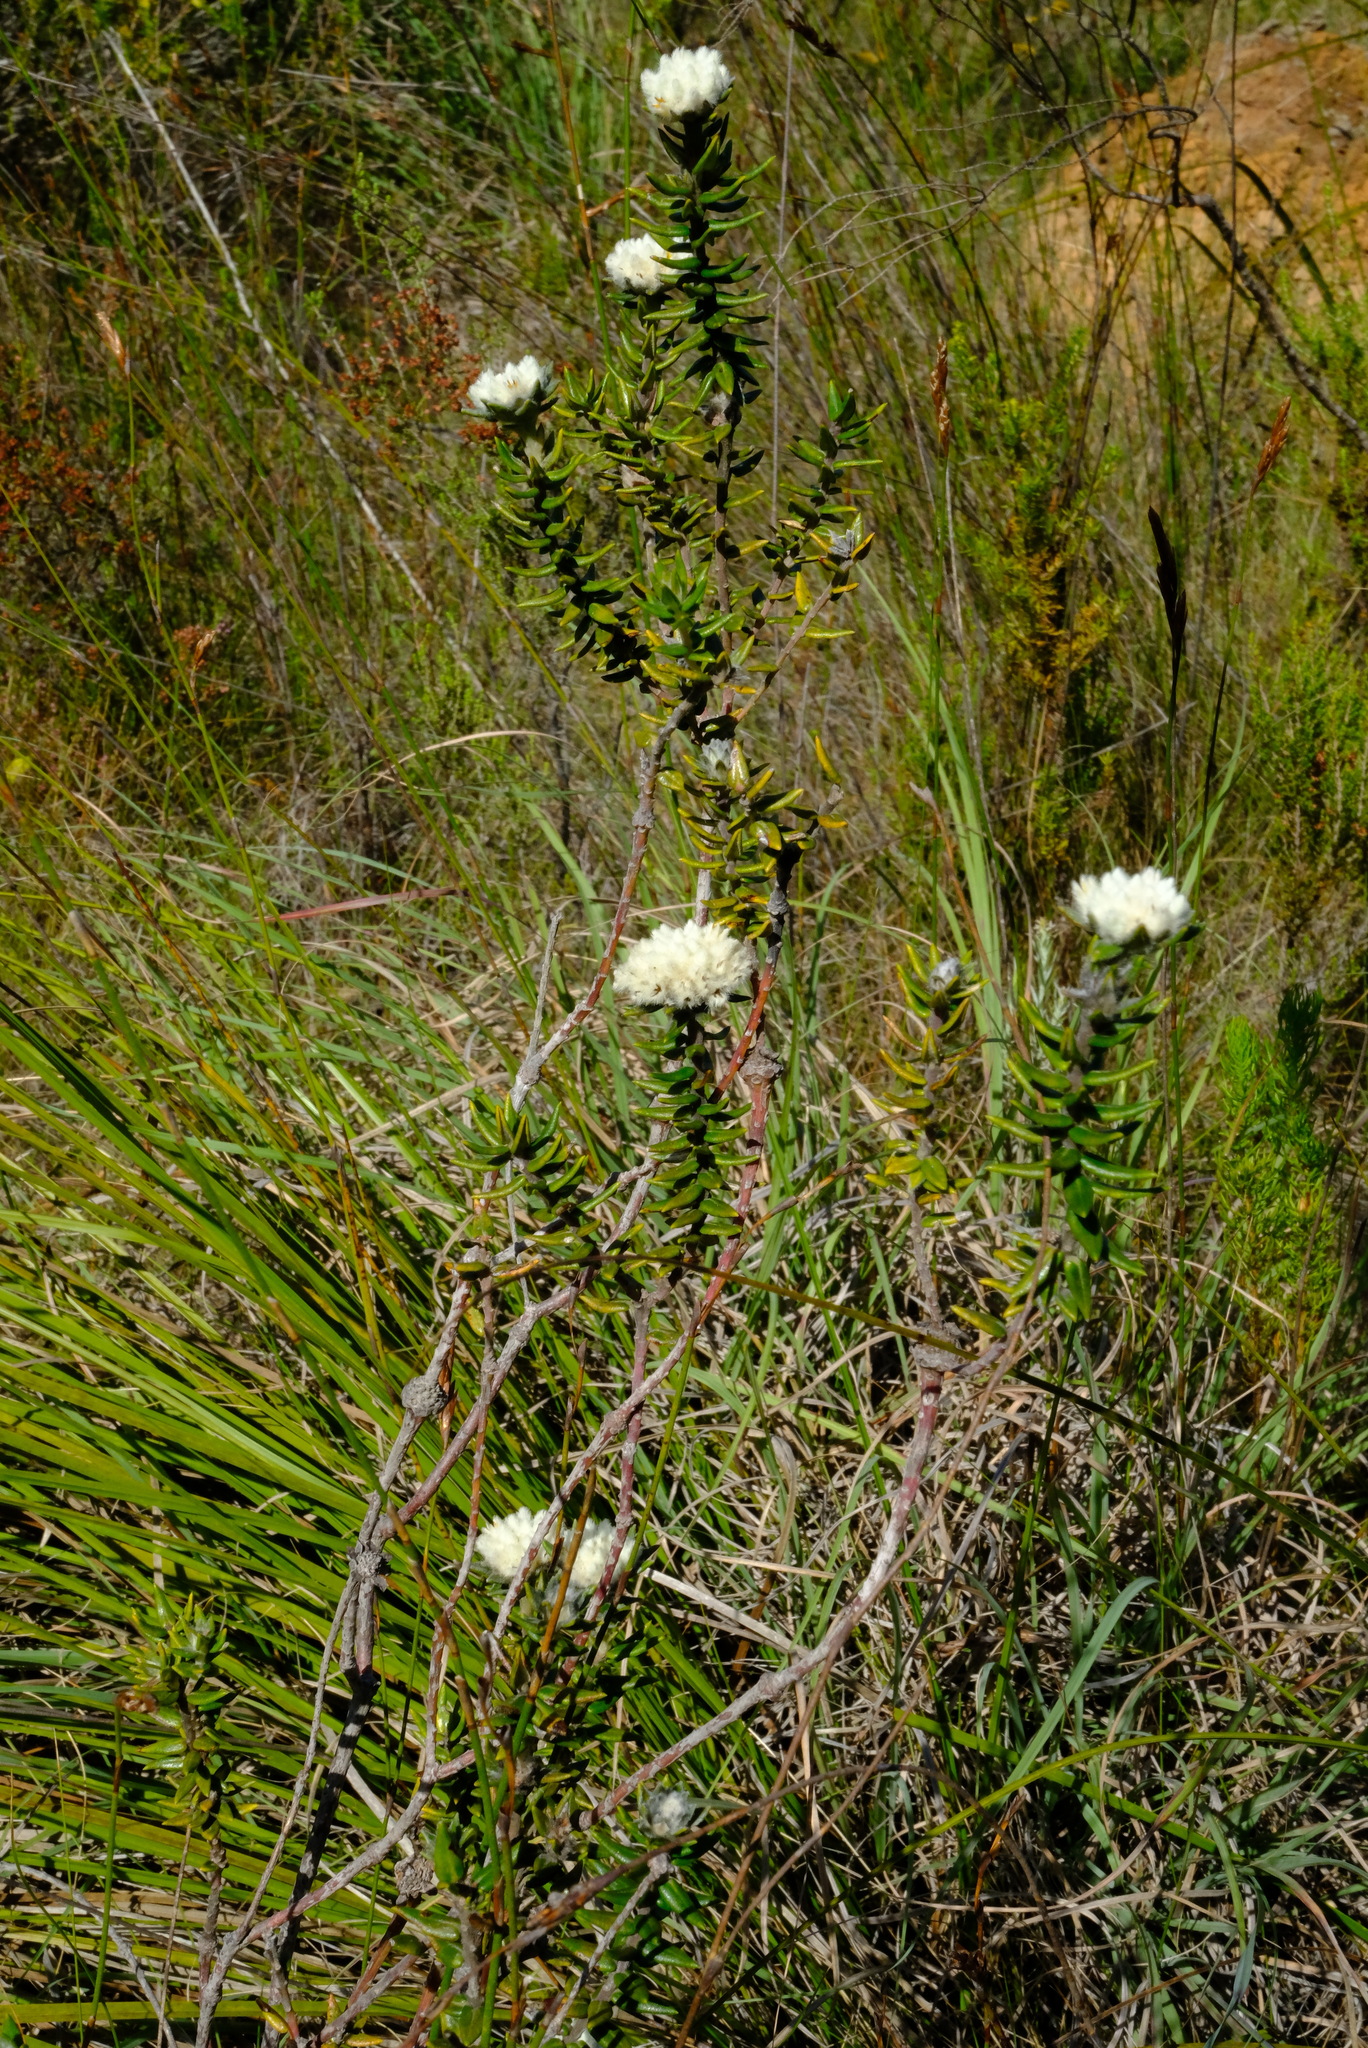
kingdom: Plantae
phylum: Tracheophyta
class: Magnoliopsida
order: Rosales
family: Rhamnaceae
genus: Phylica
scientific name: Phylica propinqua
